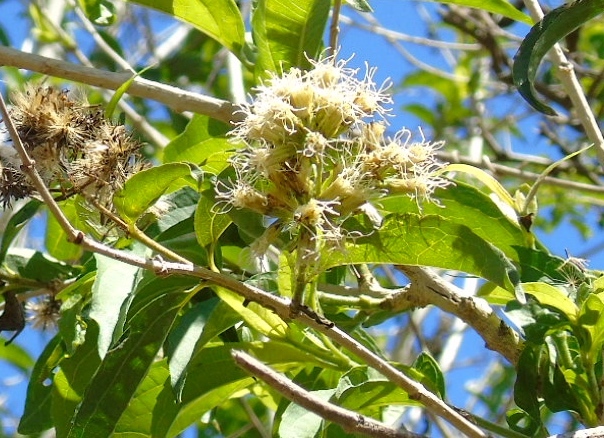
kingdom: Plantae
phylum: Tracheophyta
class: Magnoliopsida
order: Asterales
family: Asteraceae
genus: Koanophyllon
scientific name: Koanophyllon albicaule
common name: Old women's walking stick
